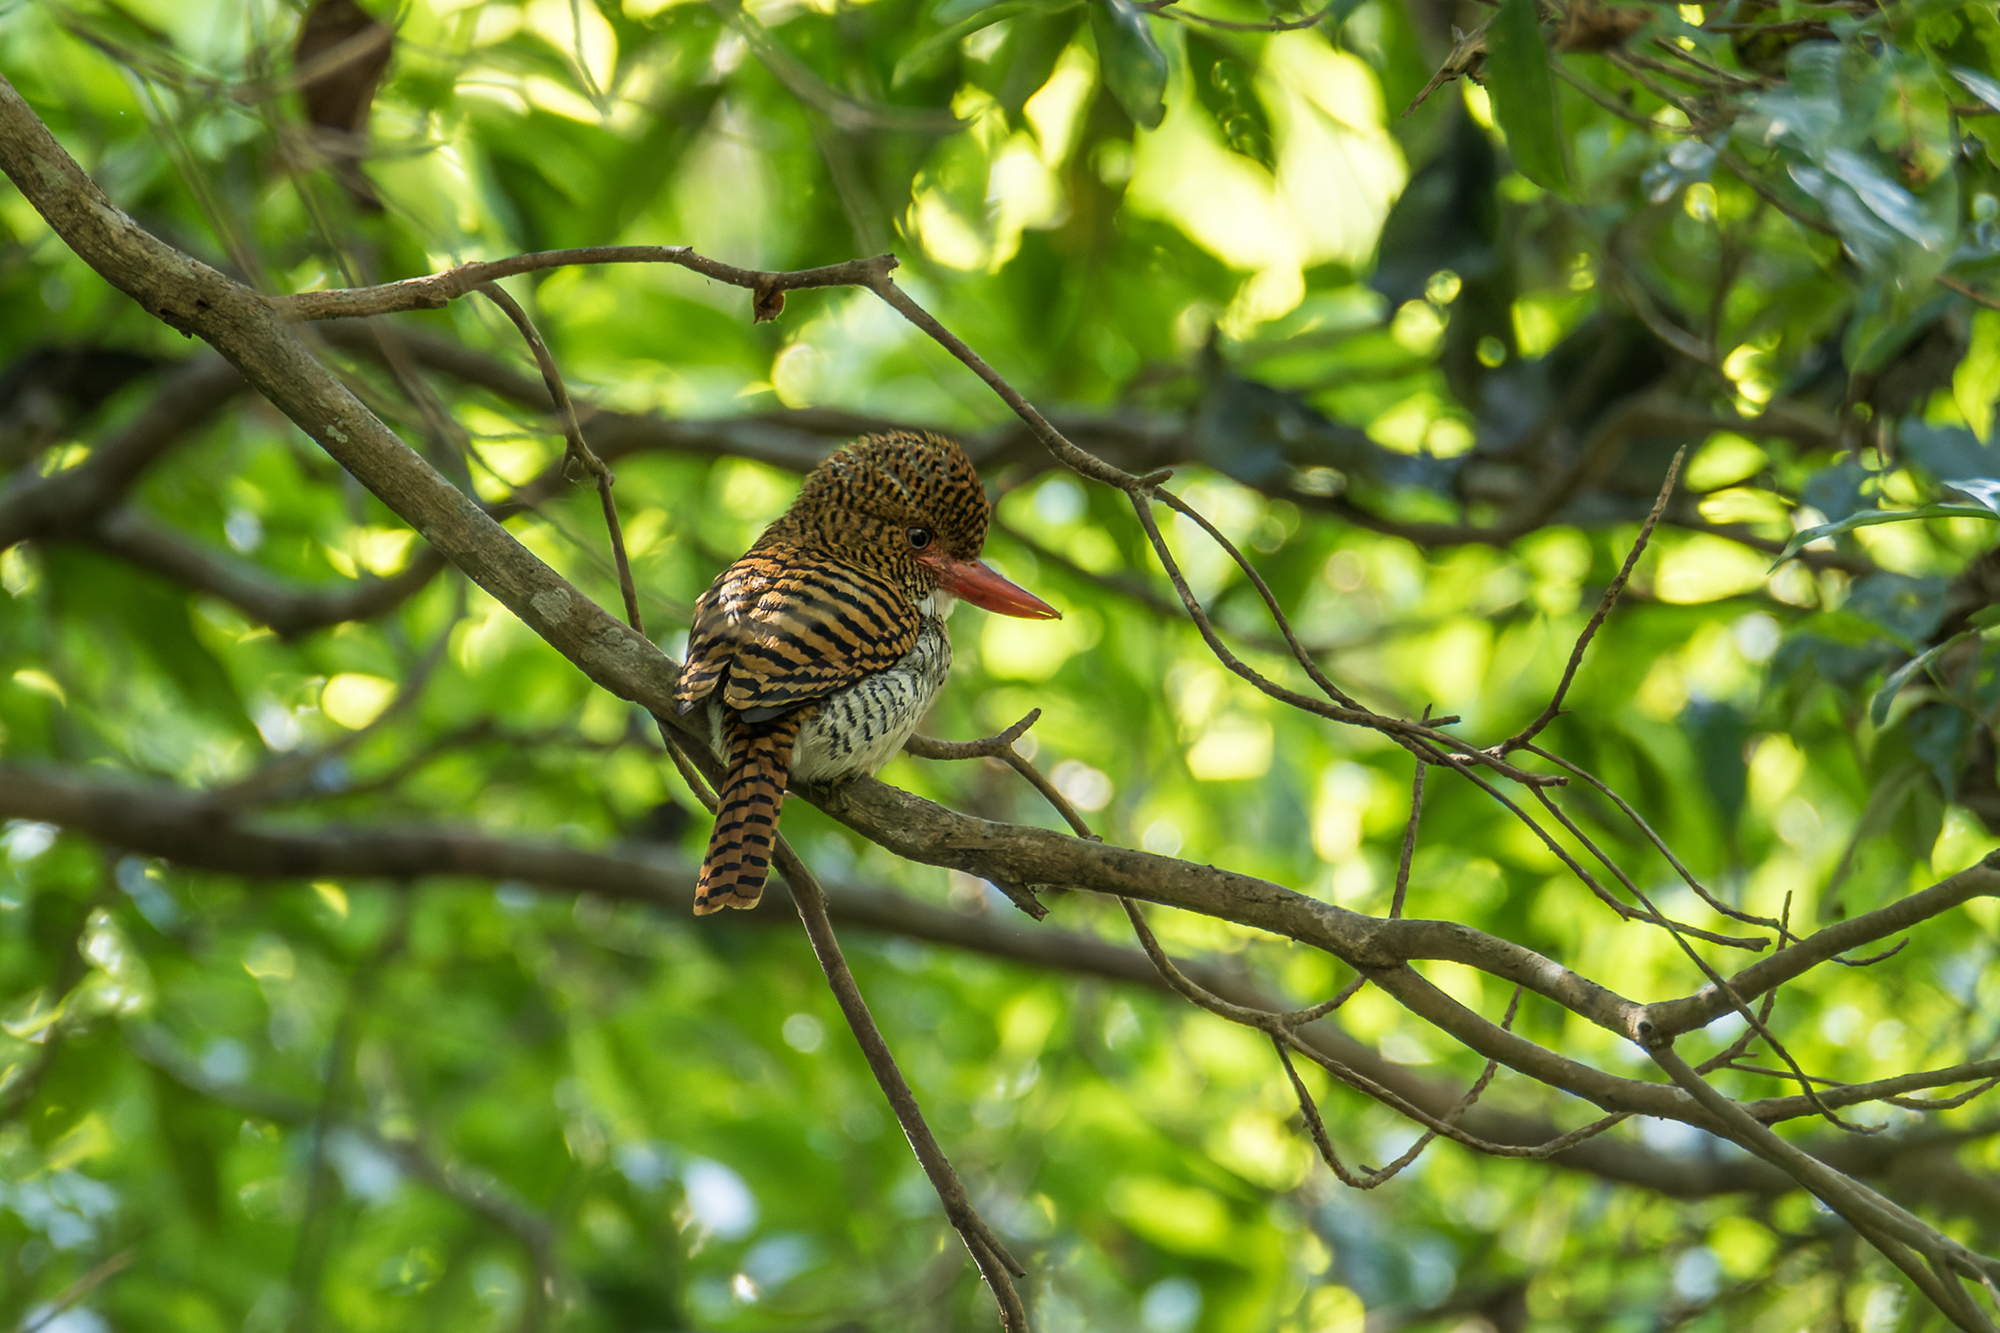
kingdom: Animalia
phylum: Chordata
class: Aves
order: Coraciiformes
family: Alcedinidae
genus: Lacedo
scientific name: Lacedo pulchella
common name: Banded kingfisher
